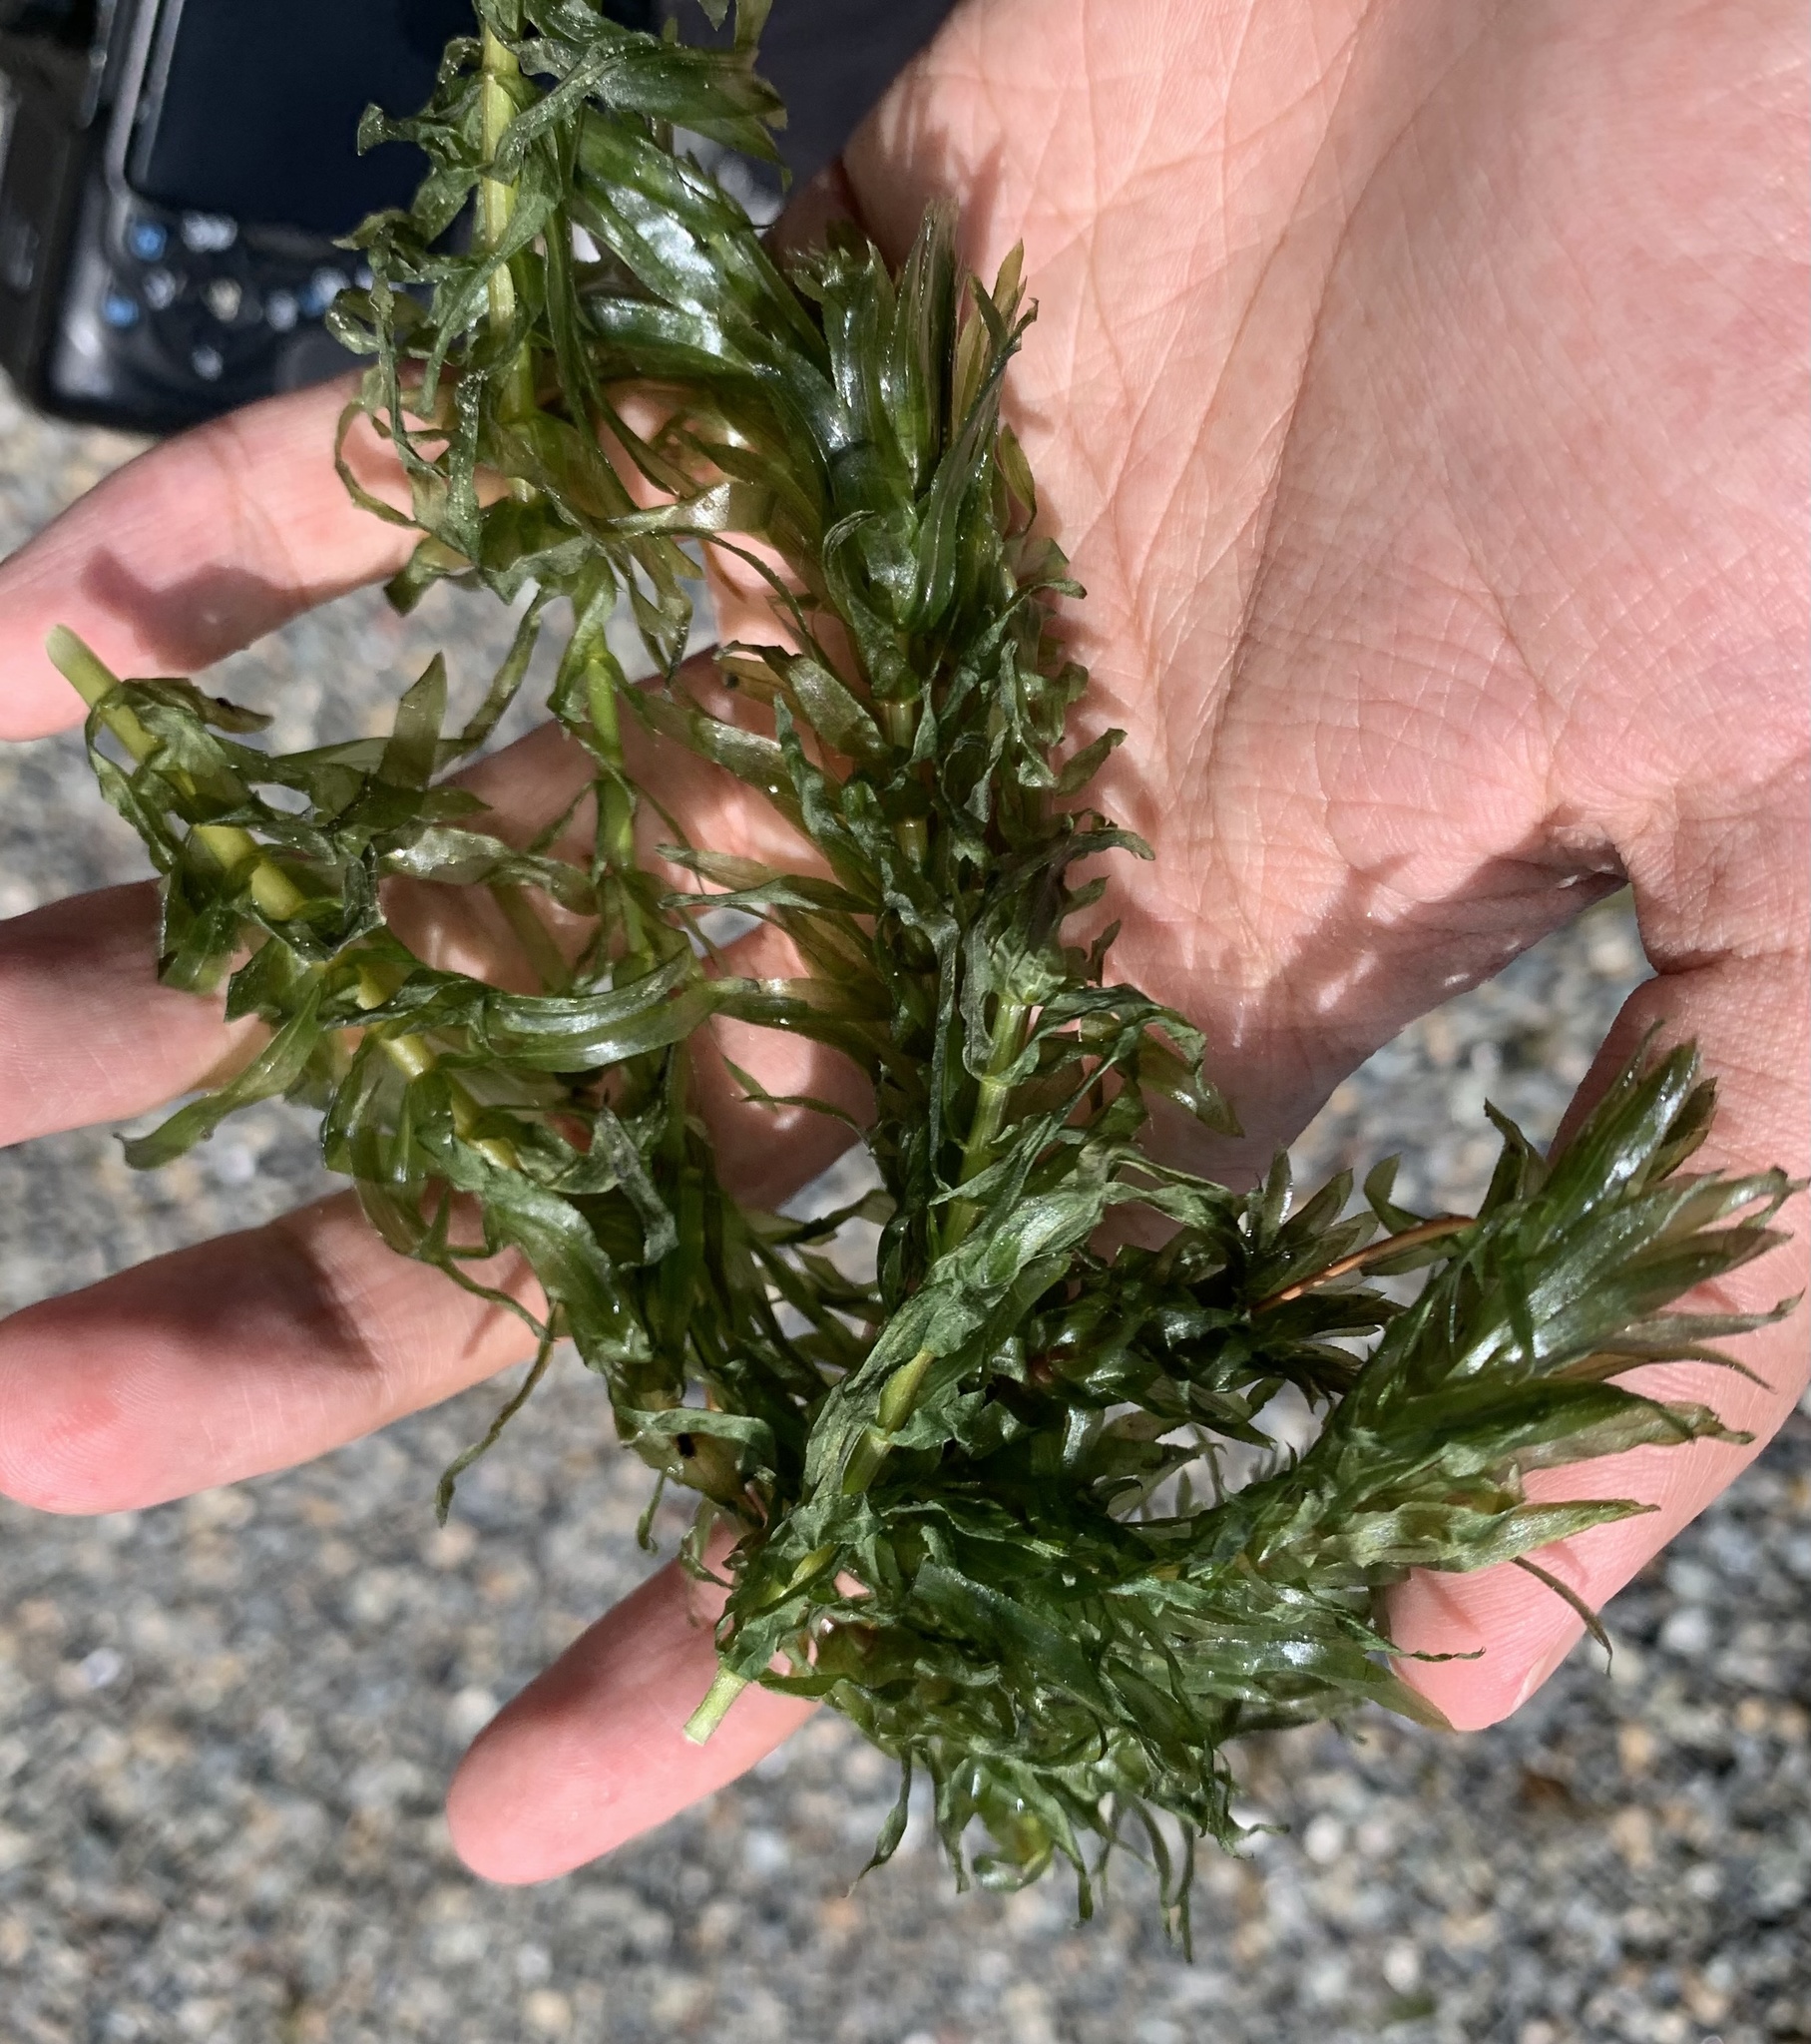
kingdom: Plantae
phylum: Tracheophyta
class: Liliopsida
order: Alismatales
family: Hydrocharitaceae
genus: Elodea
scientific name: Elodea densa
